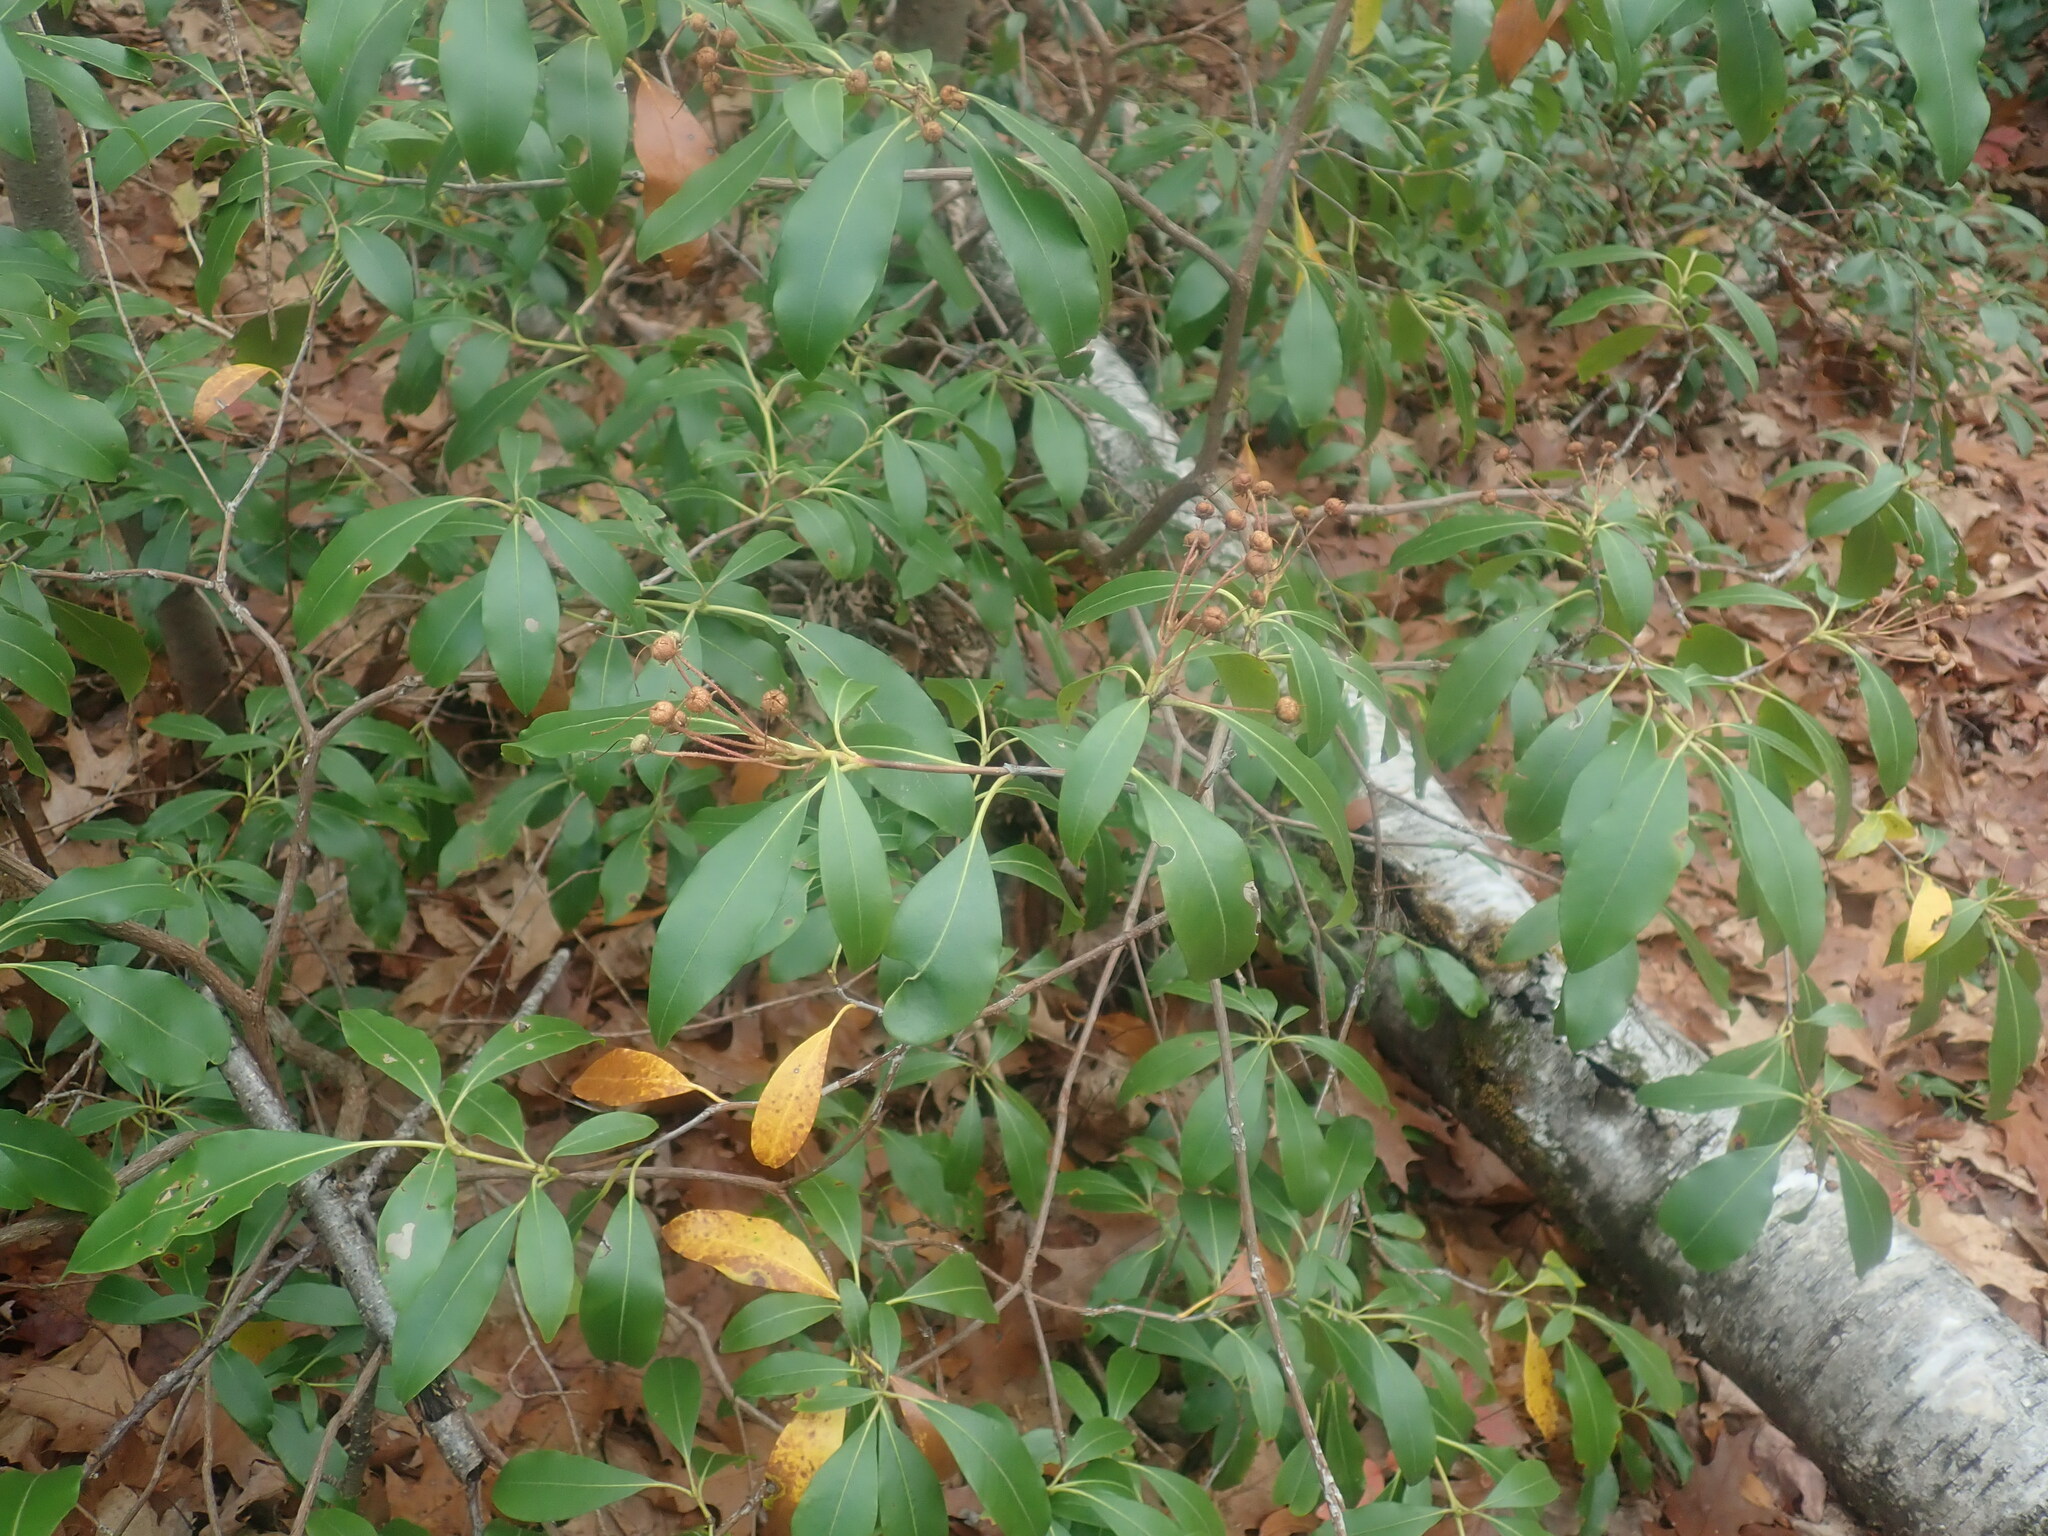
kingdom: Plantae
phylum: Tracheophyta
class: Magnoliopsida
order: Ericales
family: Ericaceae
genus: Kalmia
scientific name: Kalmia latifolia
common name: Mountain-laurel
